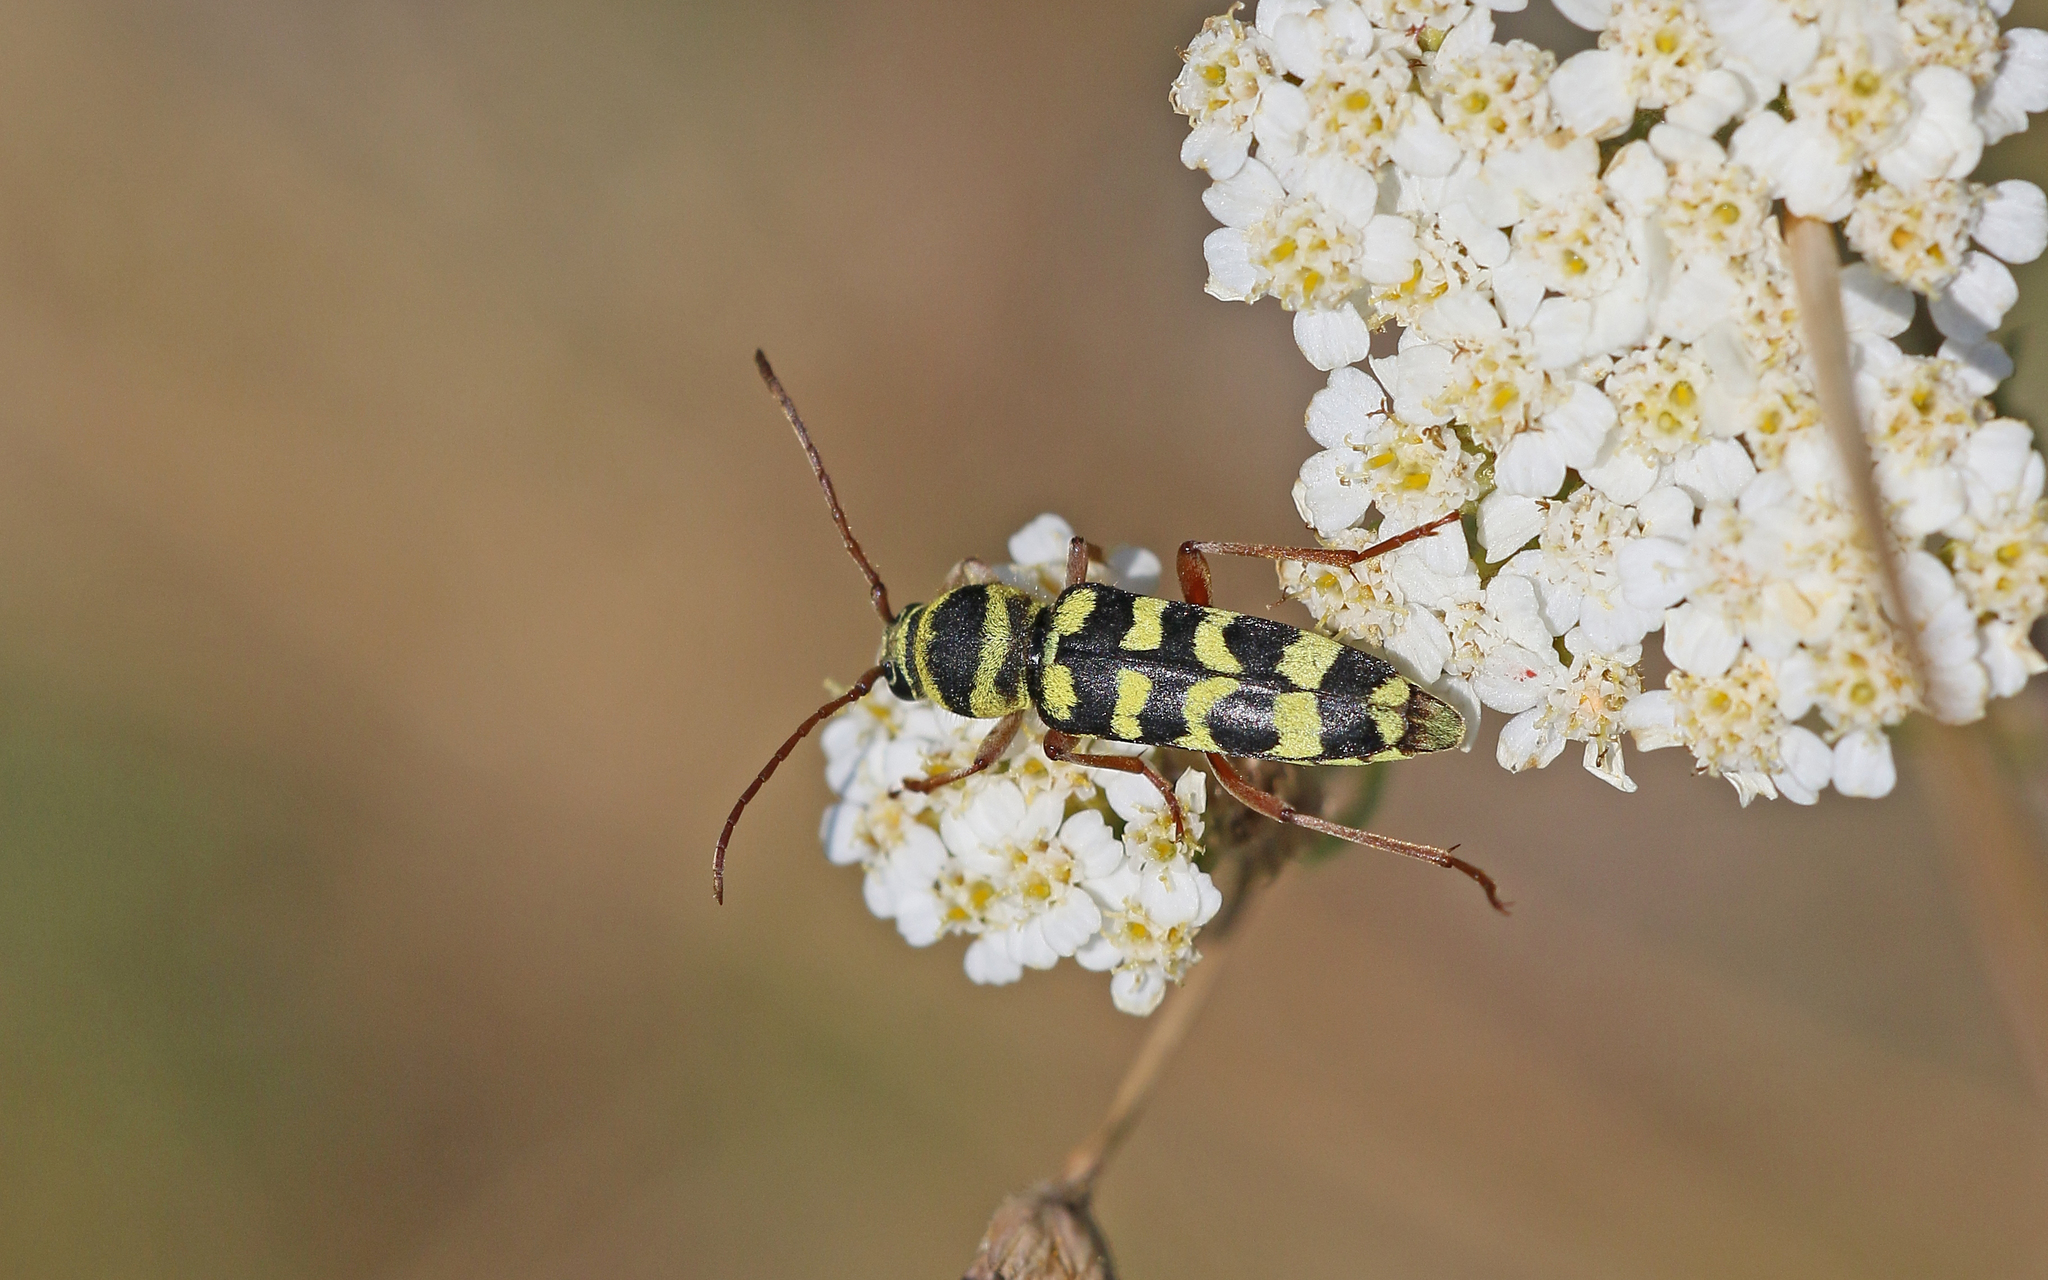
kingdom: Animalia
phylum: Arthropoda
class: Insecta
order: Coleoptera
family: Cerambycidae
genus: Plagionotus
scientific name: Plagionotus floralis
